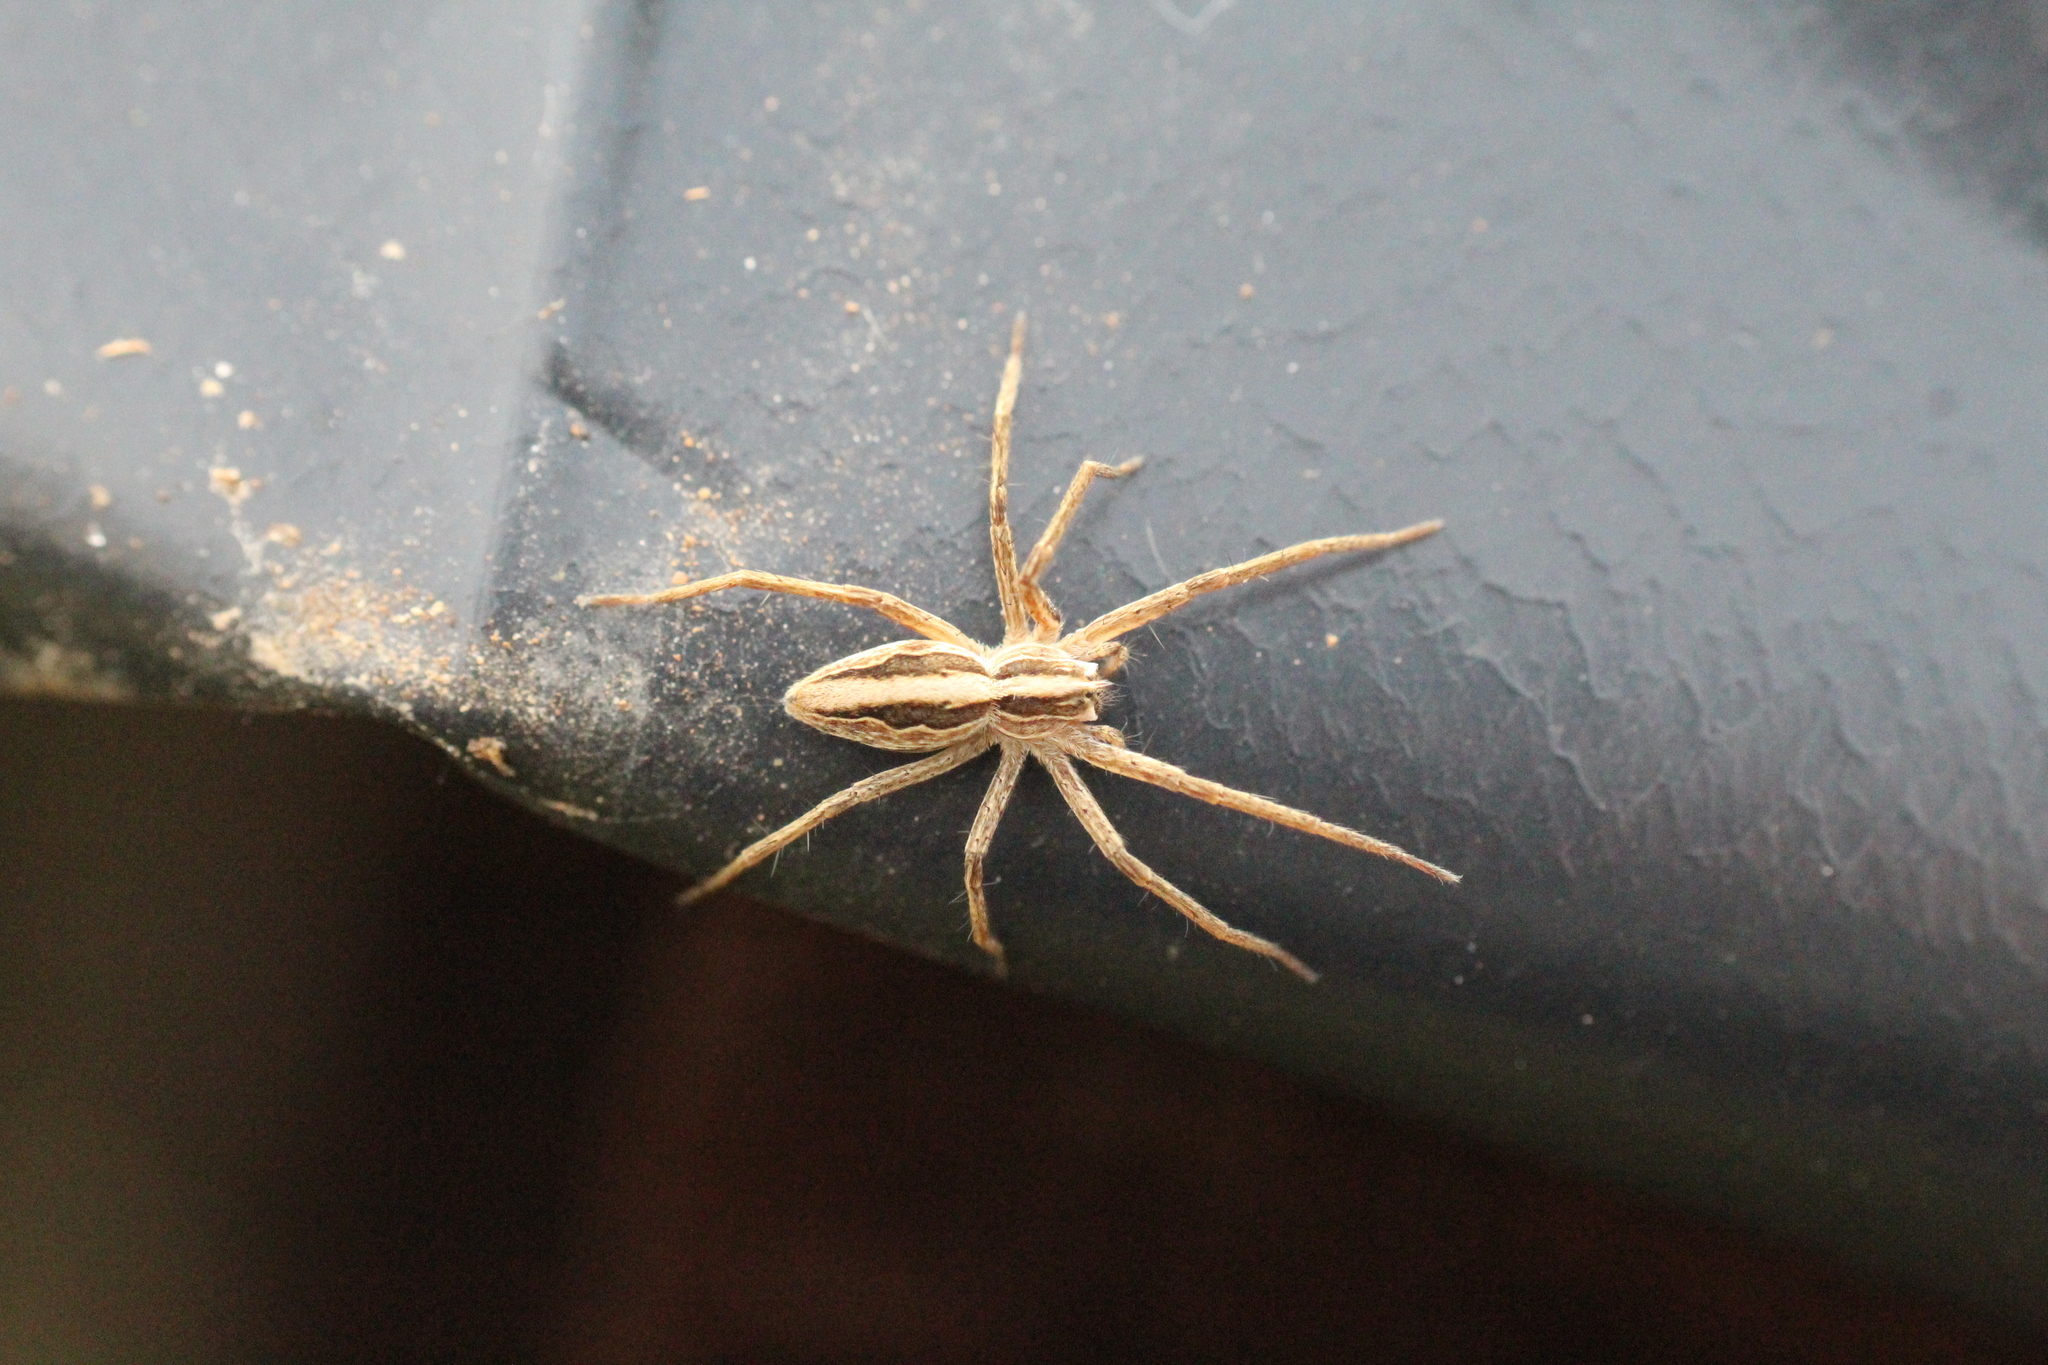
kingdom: Animalia
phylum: Arthropoda
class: Arachnida
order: Araneae
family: Pisauridae
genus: Pisaura
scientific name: Pisaura mirabilis
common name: Tent spider
